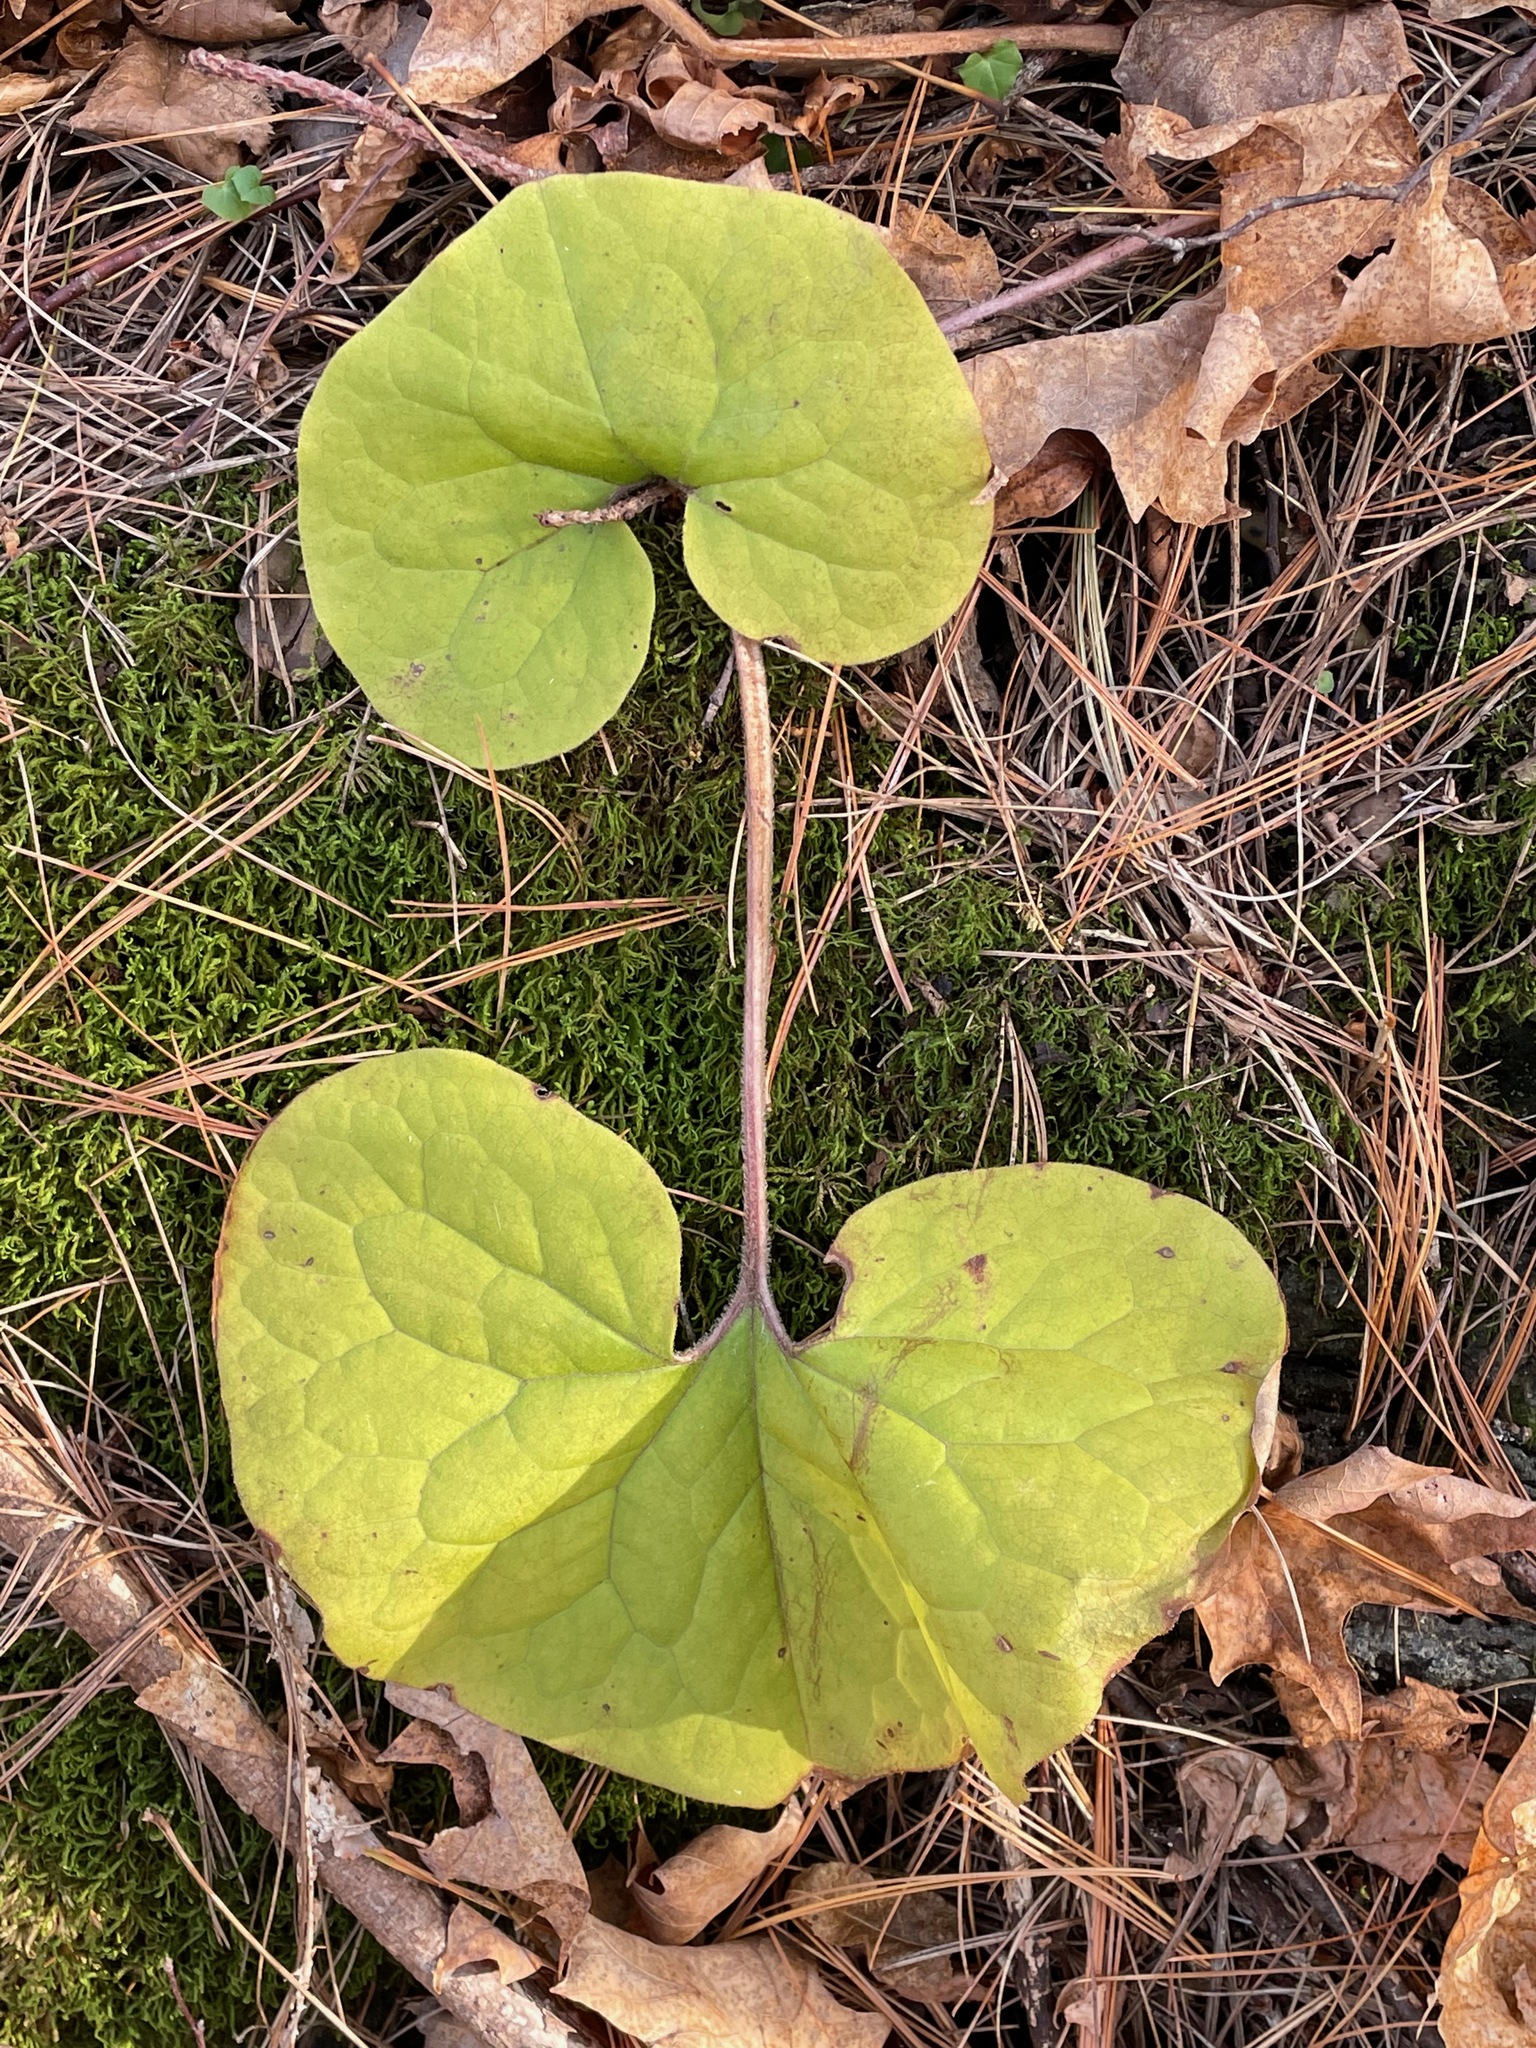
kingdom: Plantae
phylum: Tracheophyta
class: Magnoliopsida
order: Piperales
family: Aristolochiaceae
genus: Asarum
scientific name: Asarum canadense
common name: Wild ginger
